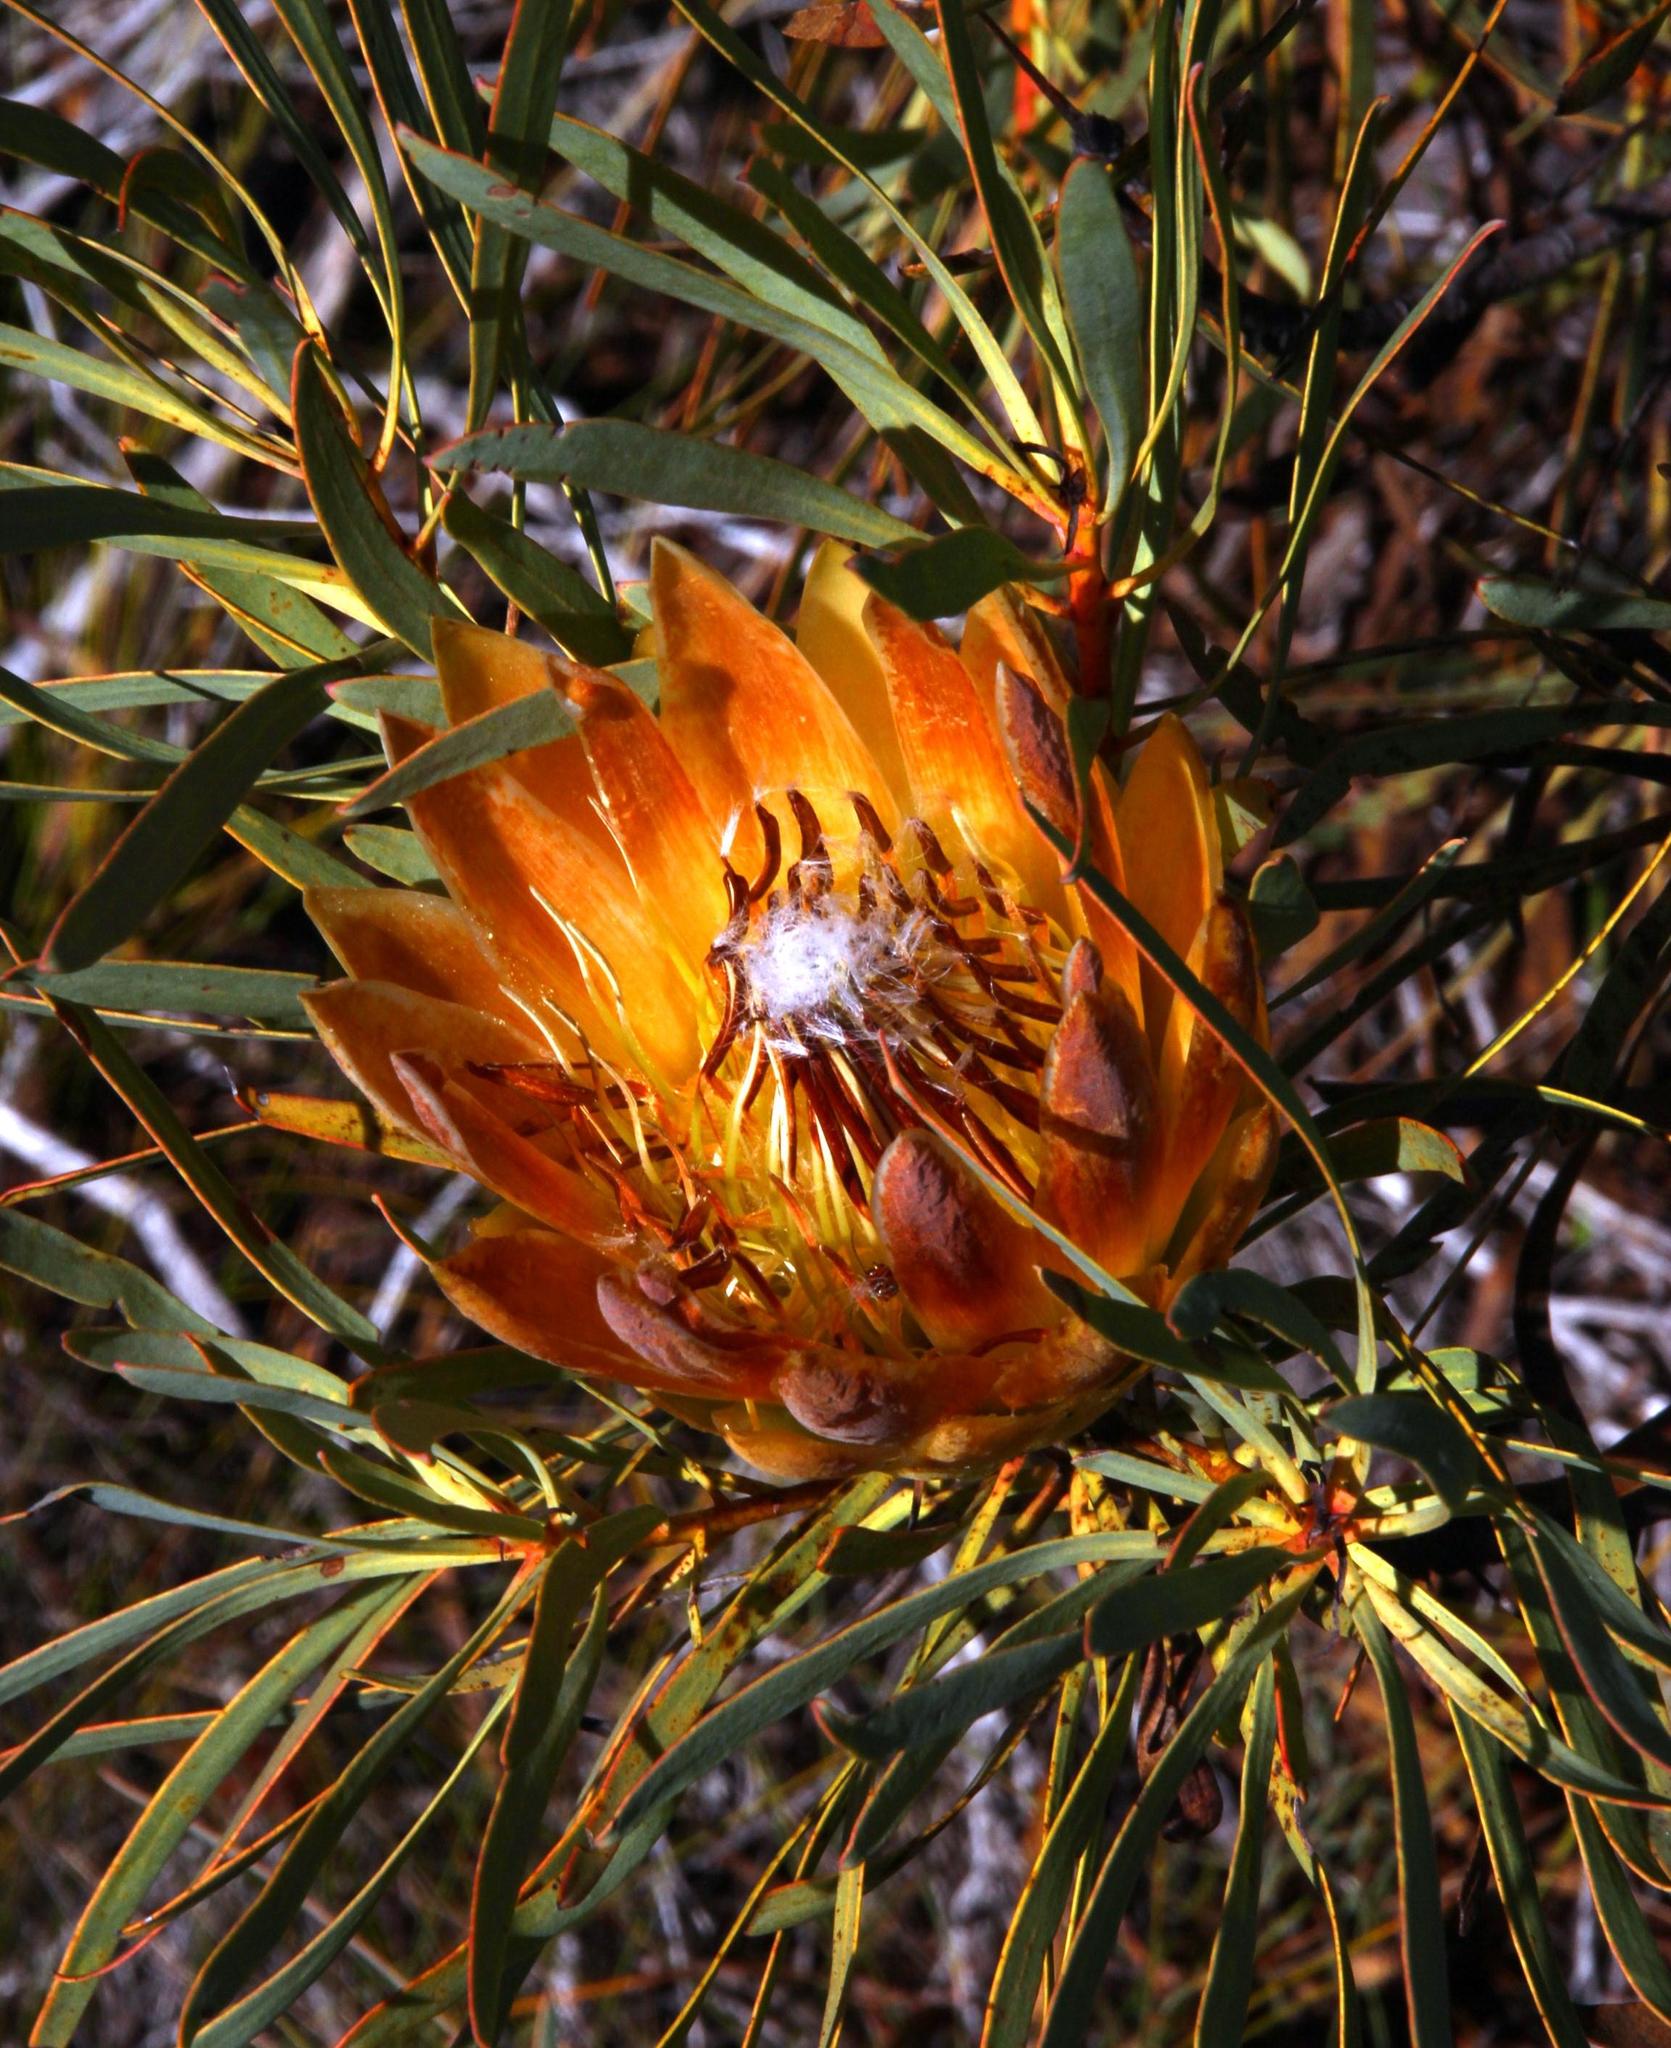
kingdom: Plantae
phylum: Tracheophyta
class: Magnoliopsida
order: Proteales
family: Proteaceae
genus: Protea
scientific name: Protea repens
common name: Sugarbush
